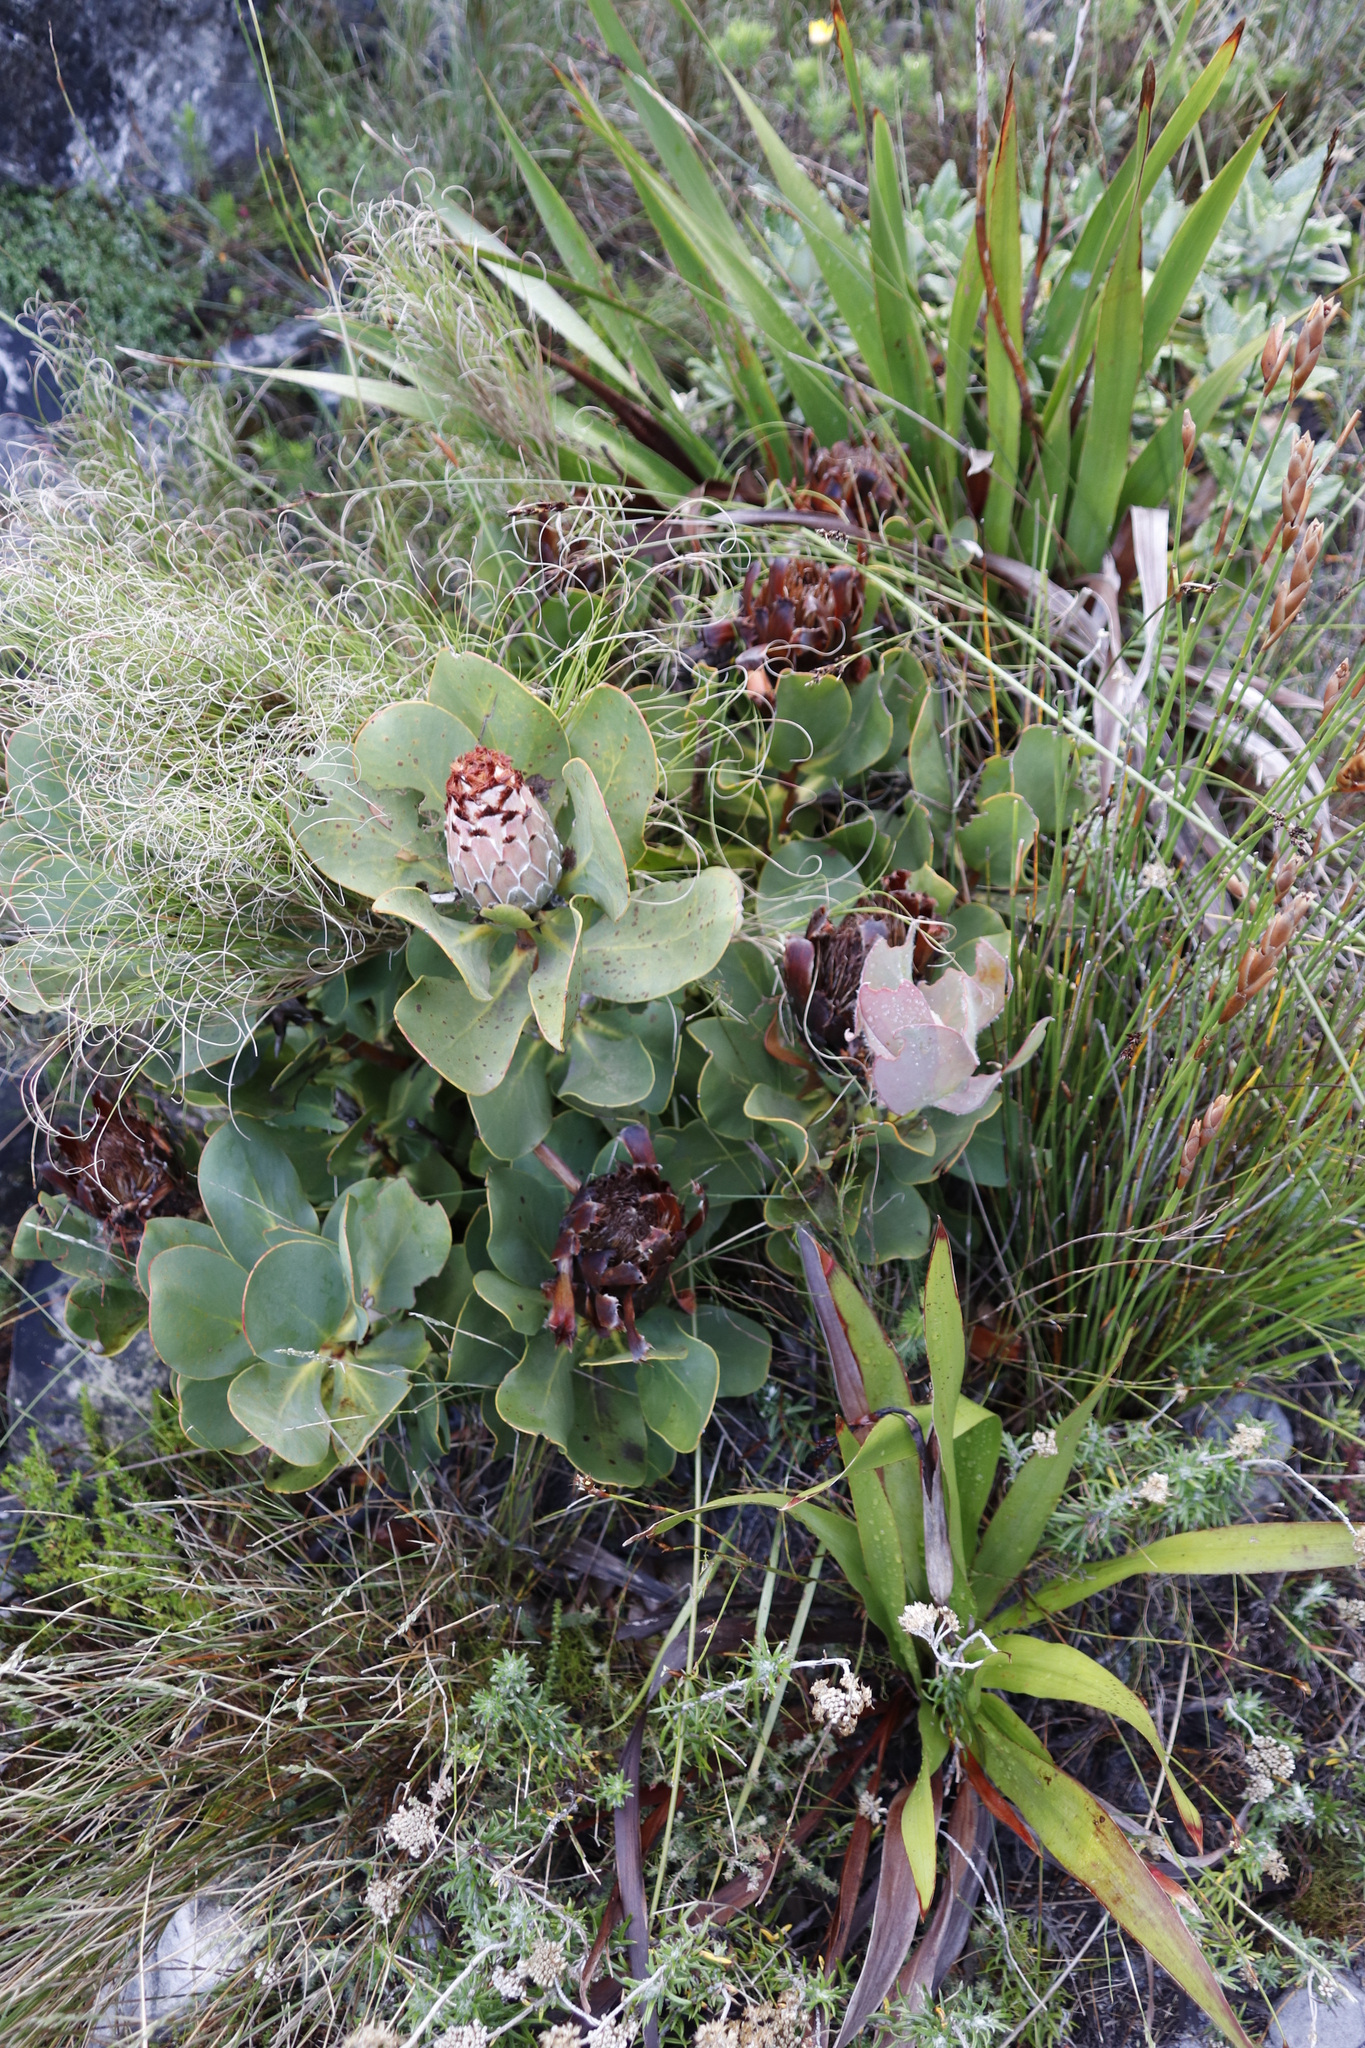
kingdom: Plantae
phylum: Tracheophyta
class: Magnoliopsida
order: Proteales
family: Proteaceae
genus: Protea
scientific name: Protea speciosa
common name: Brown-beard sugarbush
